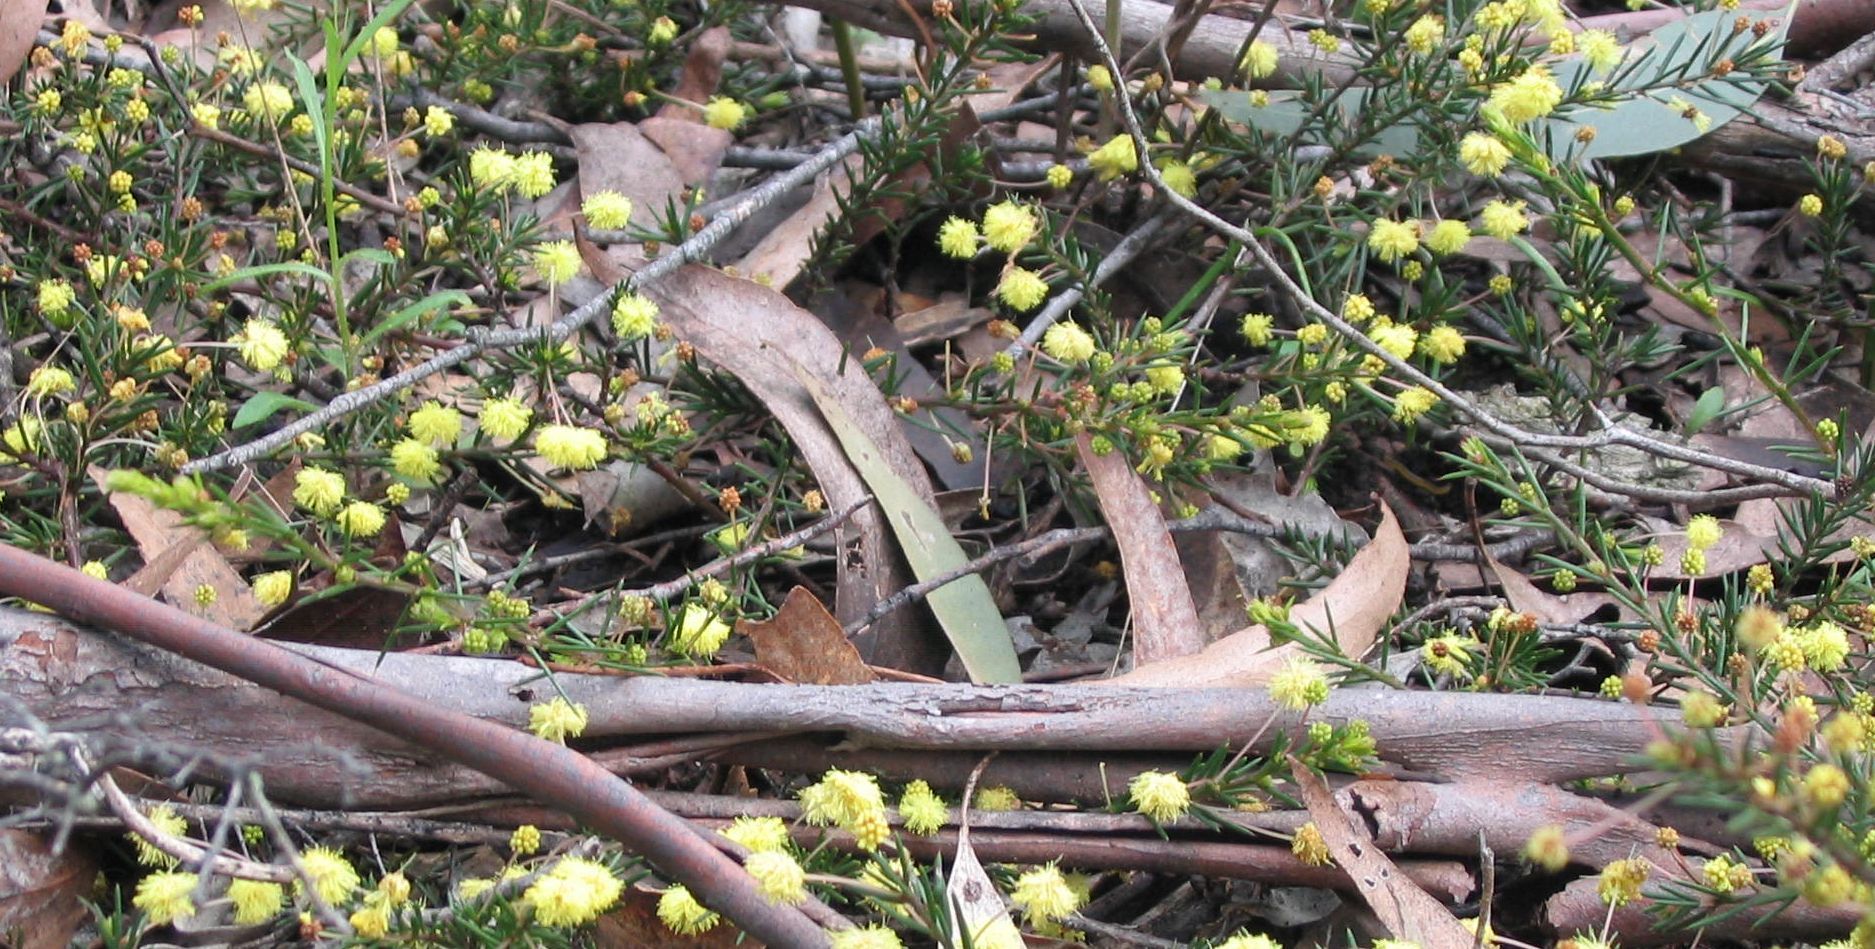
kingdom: Plantae
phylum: Tracheophyta
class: Magnoliopsida
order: Fabales
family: Fabaceae
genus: Acacia
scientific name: Acacia aculeatissima
